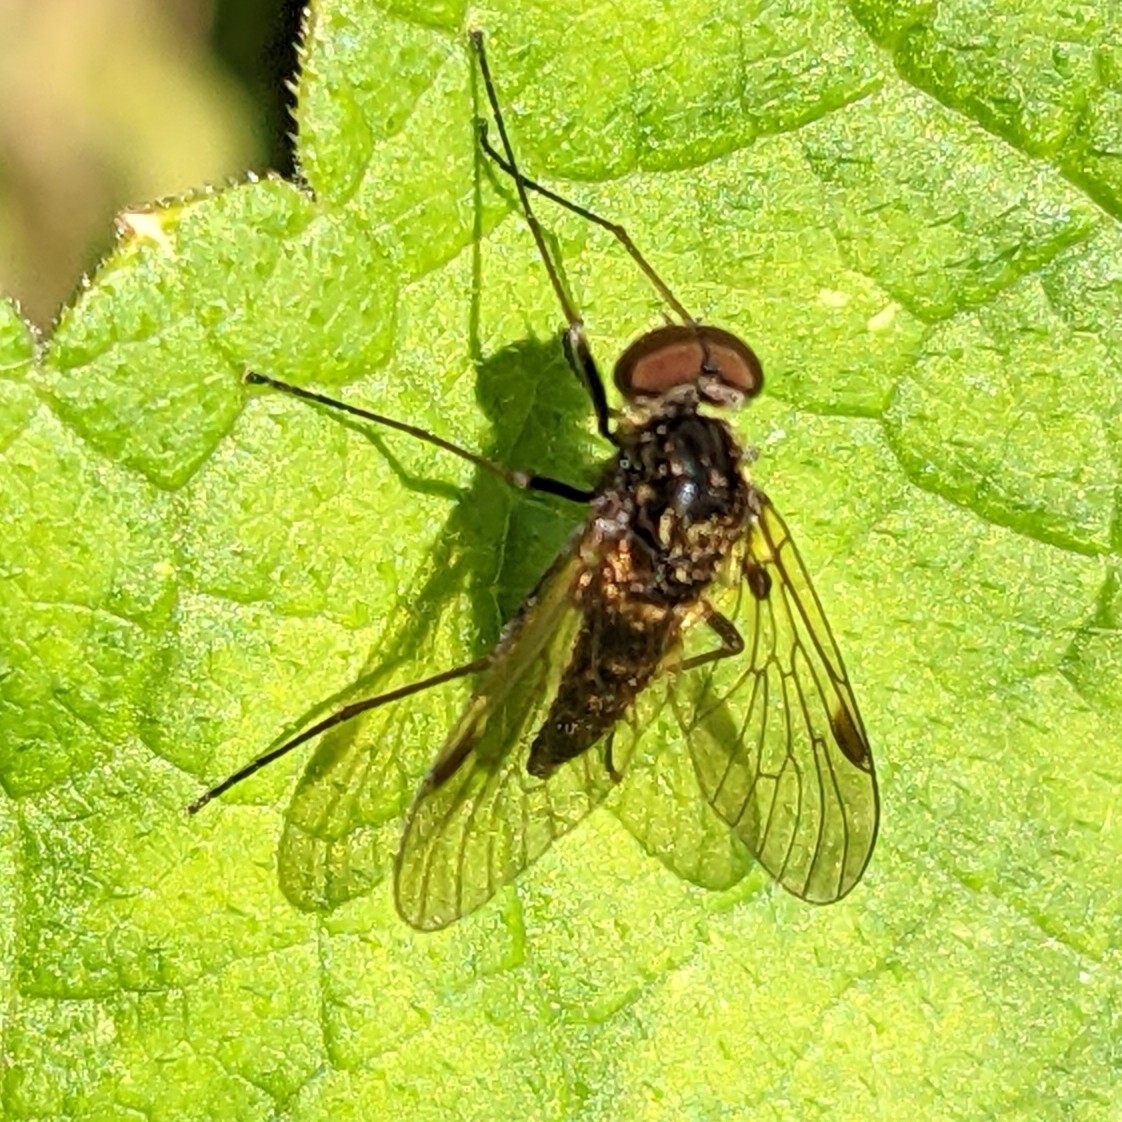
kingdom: Animalia
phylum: Arthropoda
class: Insecta
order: Diptera
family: Rhagionidae
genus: Chrysopilus
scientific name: Chrysopilus cristatus
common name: Black snipefly
